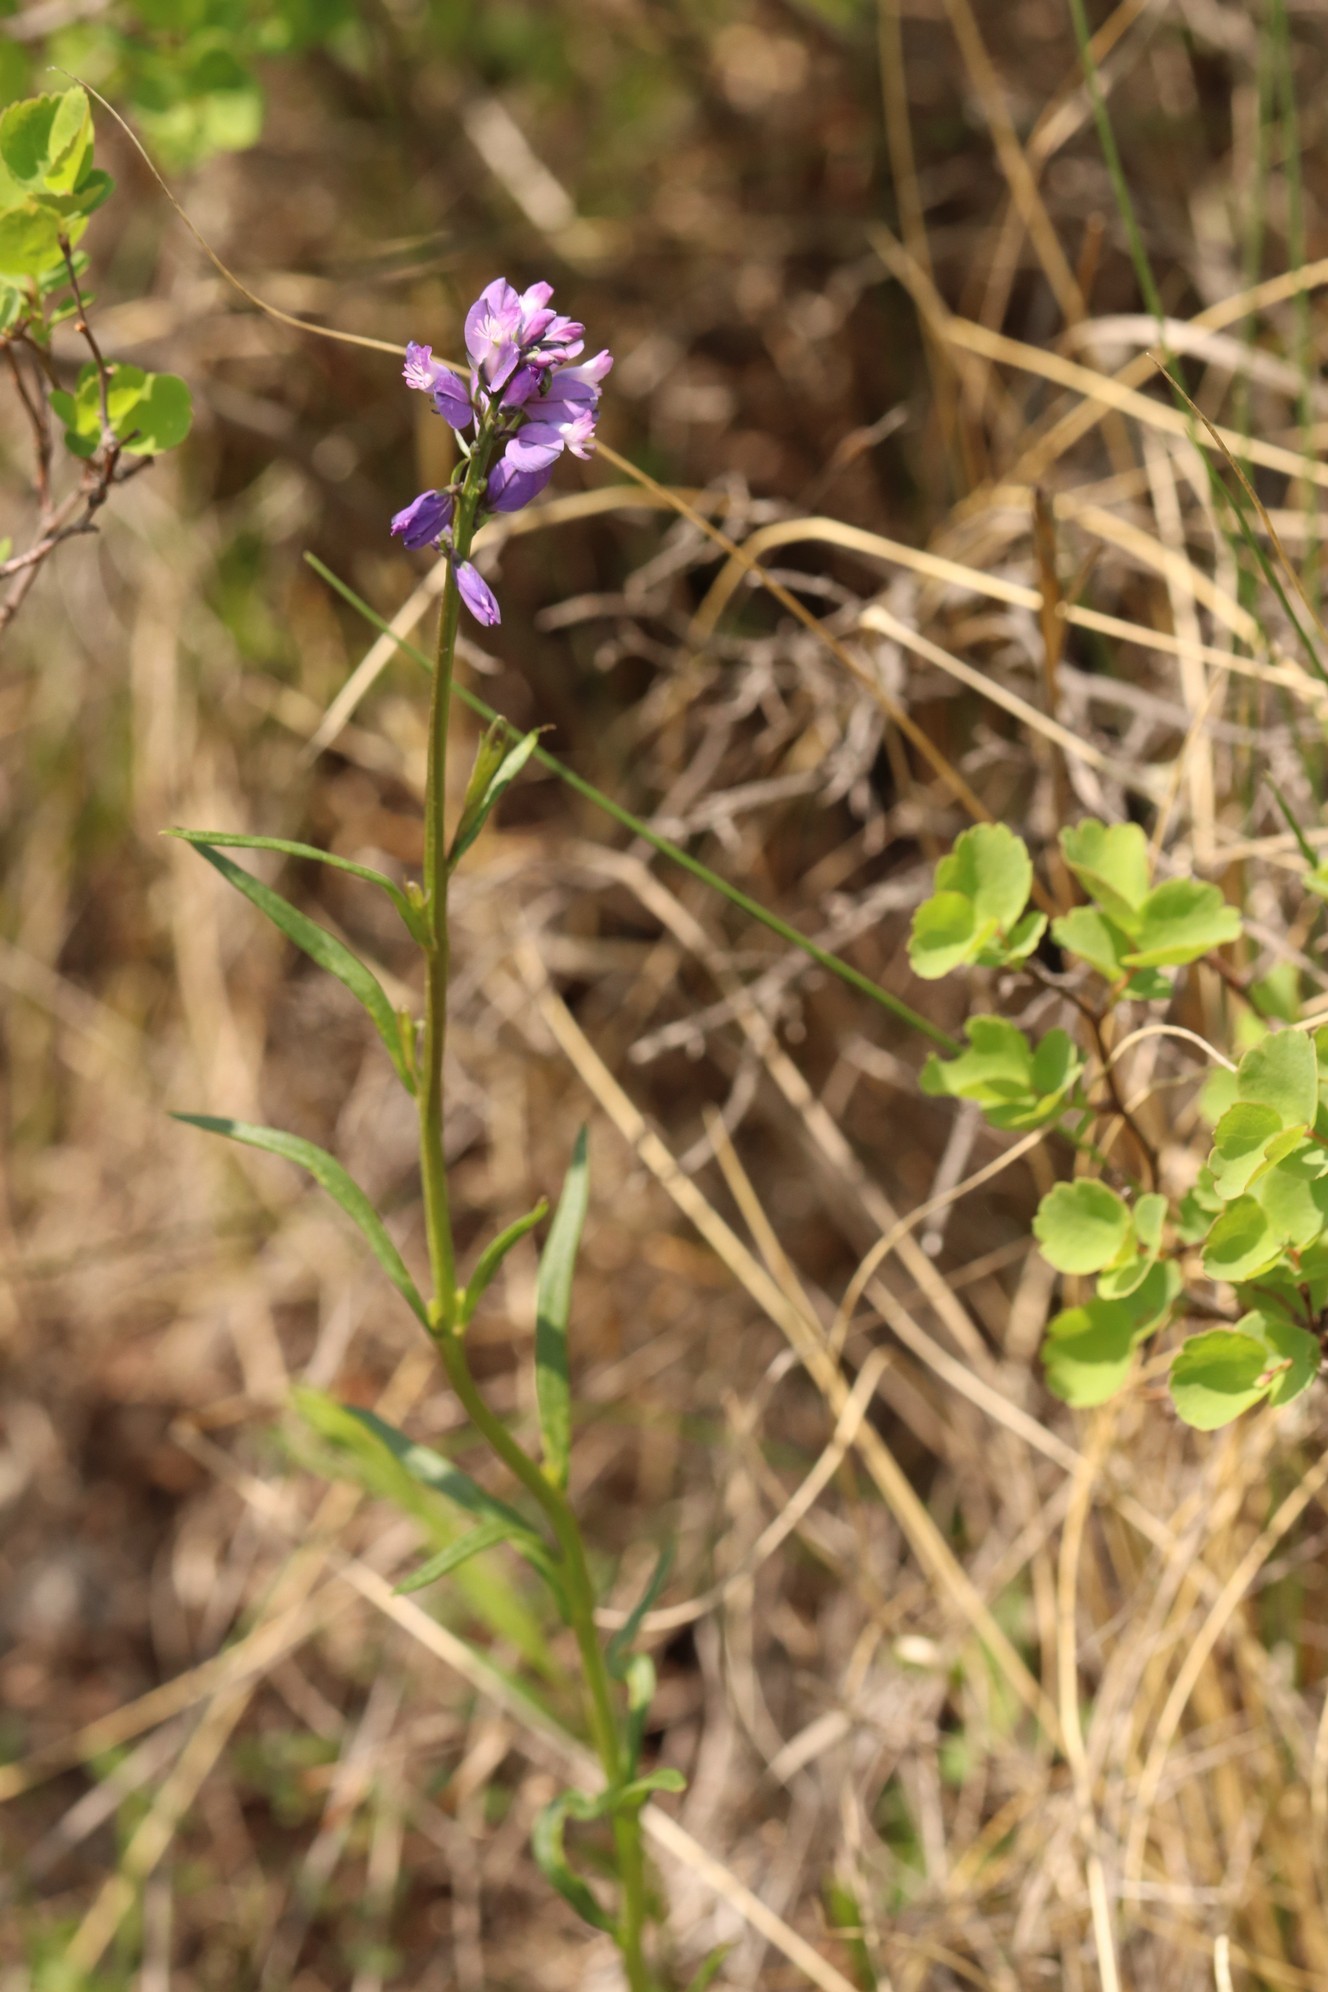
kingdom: Plantae
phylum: Tracheophyta
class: Magnoliopsida
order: Fabales
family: Polygalaceae
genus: Polygala
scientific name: Polygala comosa
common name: Tufted milkwort
